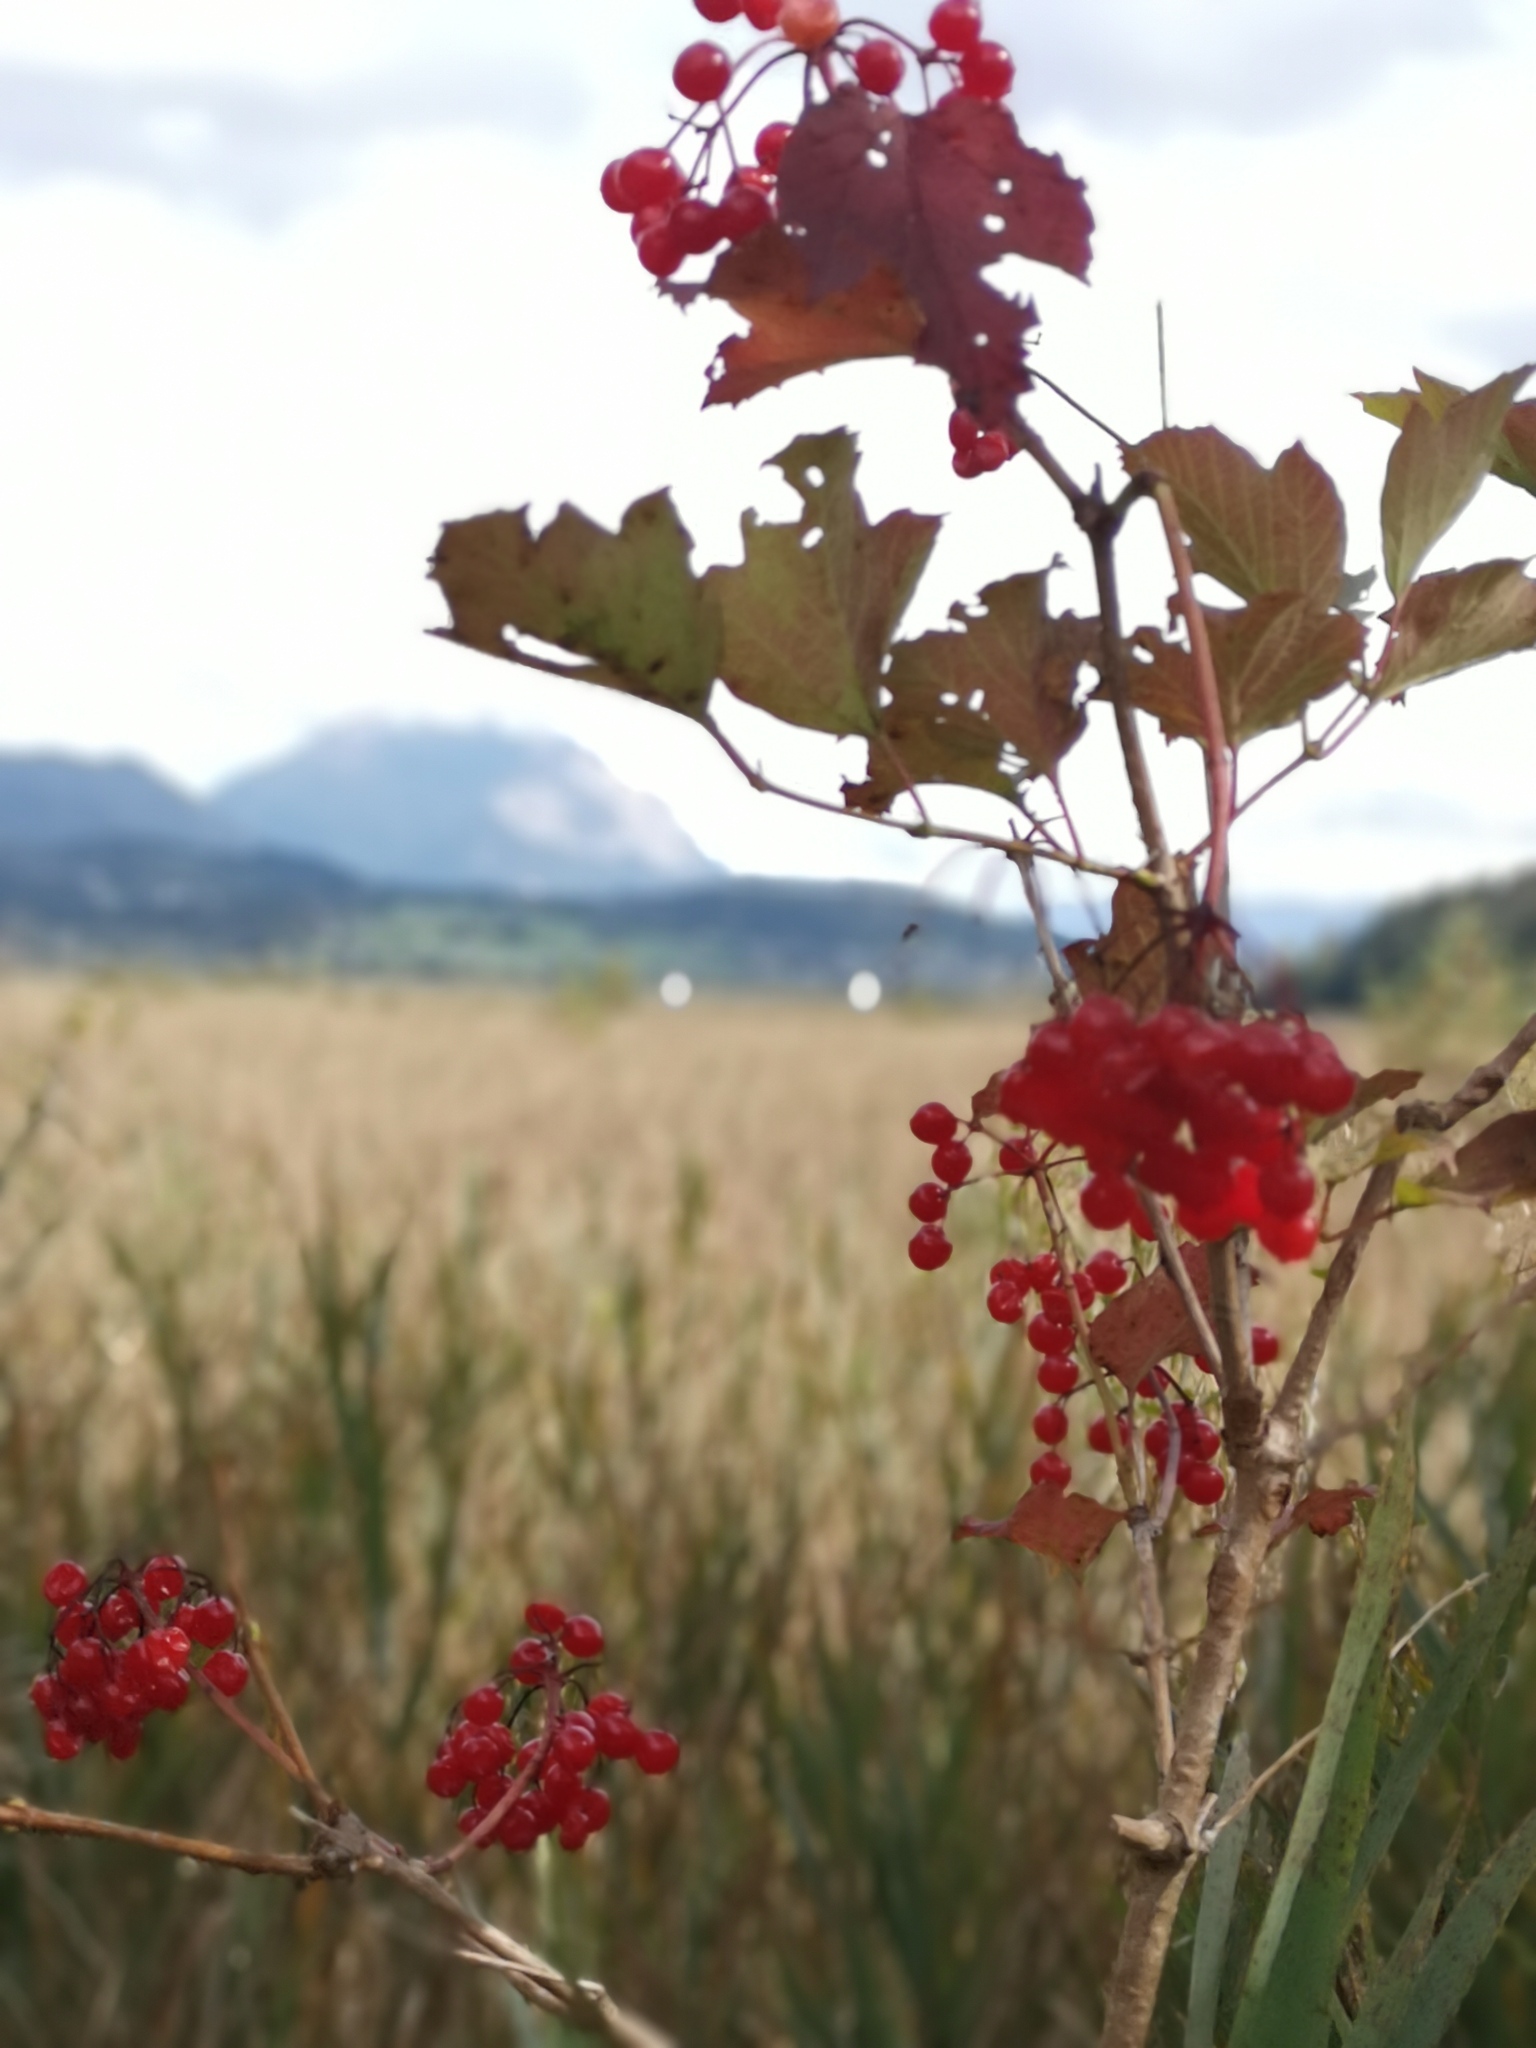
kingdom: Plantae
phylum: Tracheophyta
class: Magnoliopsida
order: Dipsacales
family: Viburnaceae
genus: Viburnum
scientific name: Viburnum opulus
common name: Guelder-rose
